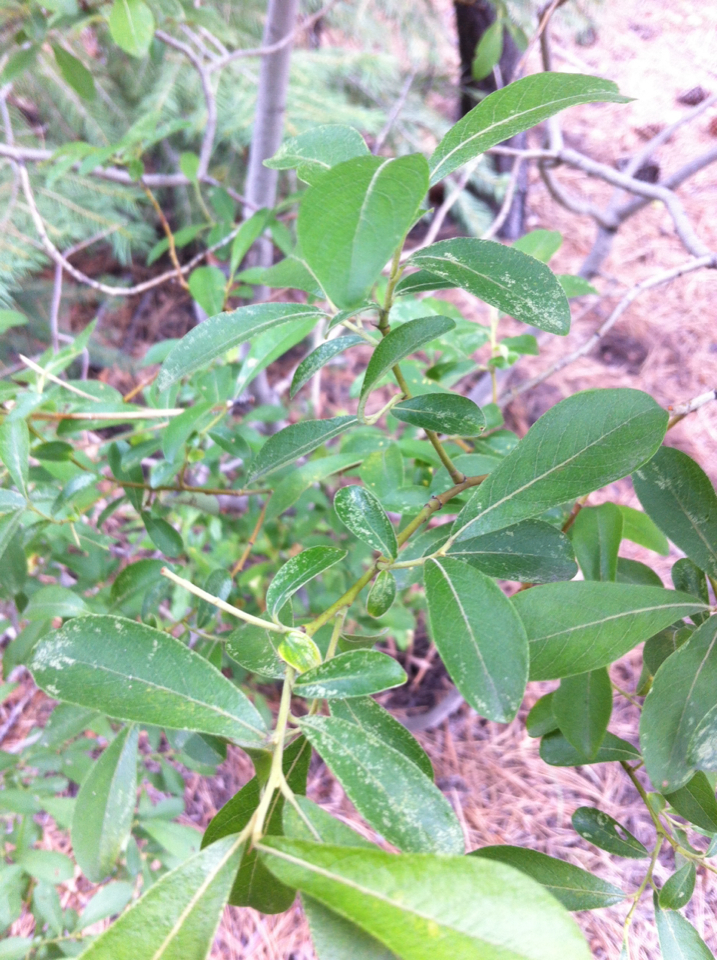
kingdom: Plantae
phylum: Tracheophyta
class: Magnoliopsida
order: Malpighiales
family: Salicaceae
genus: Salix
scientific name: Salix scouleriana
